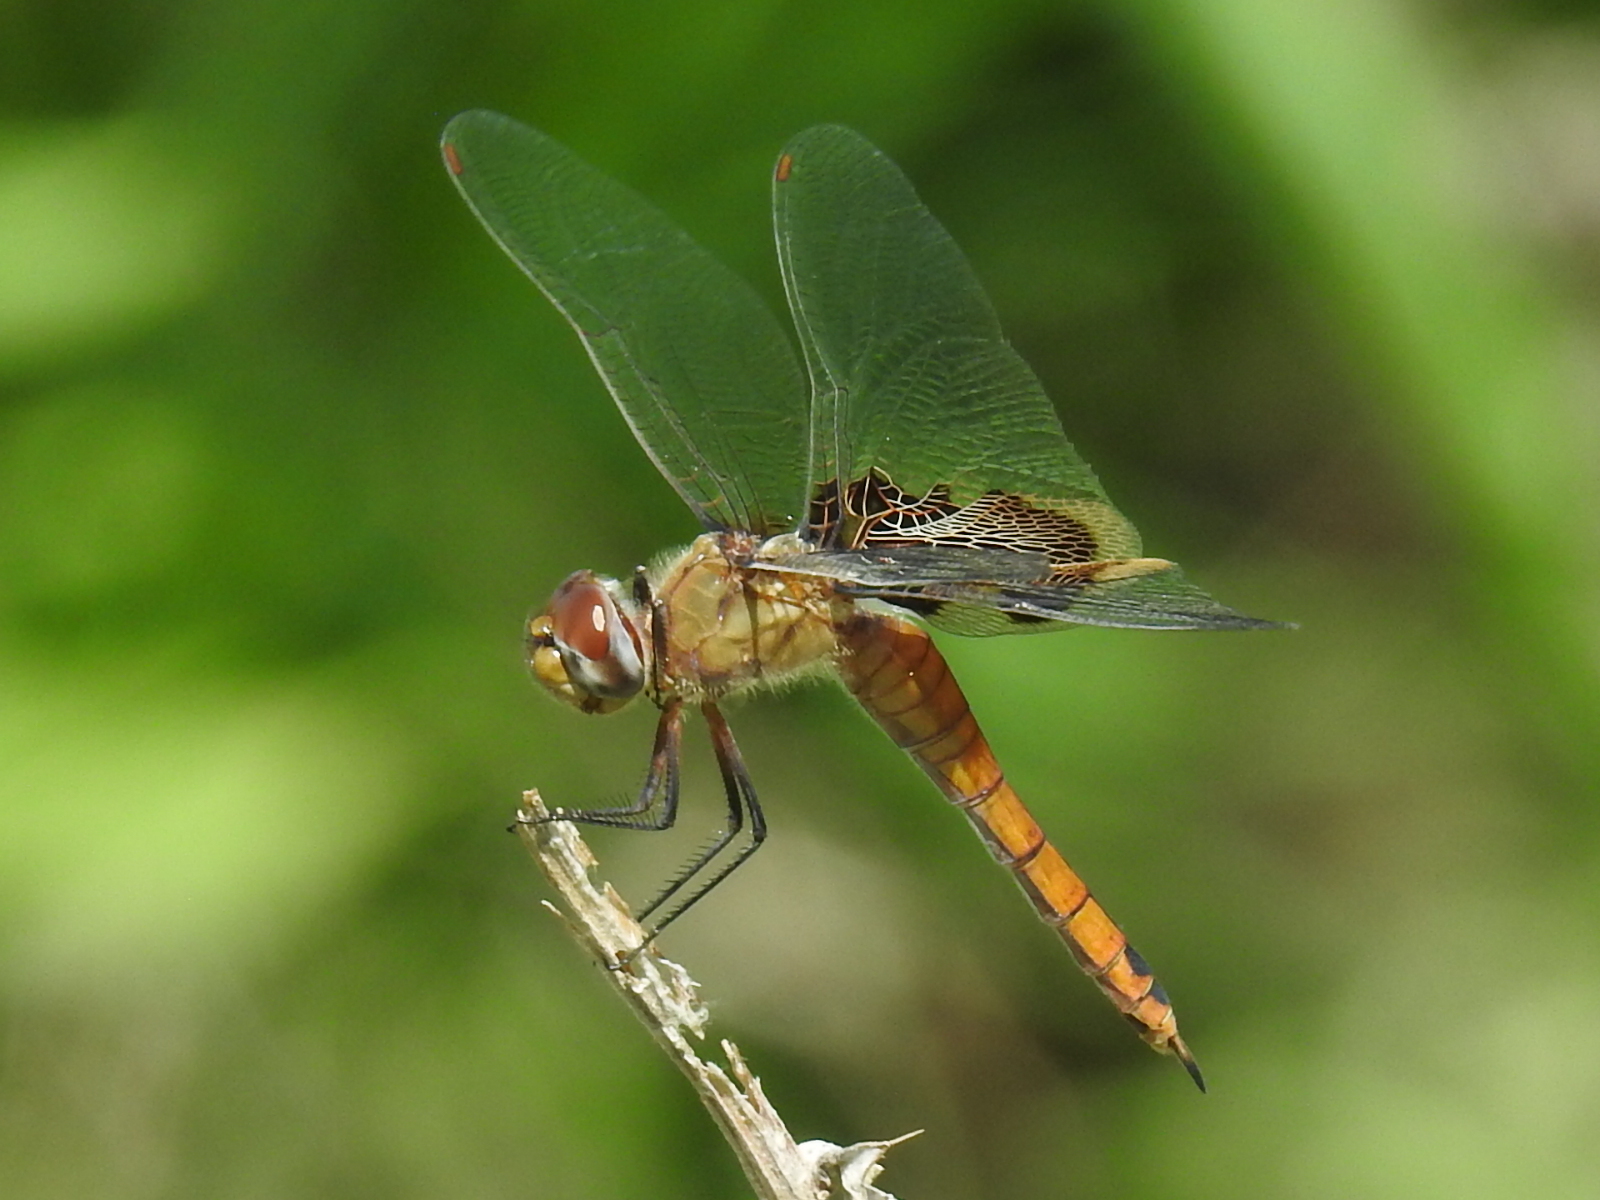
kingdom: Animalia
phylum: Arthropoda
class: Insecta
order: Odonata
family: Libellulidae
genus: Tramea
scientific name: Tramea onusta
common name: Red saddlebags
